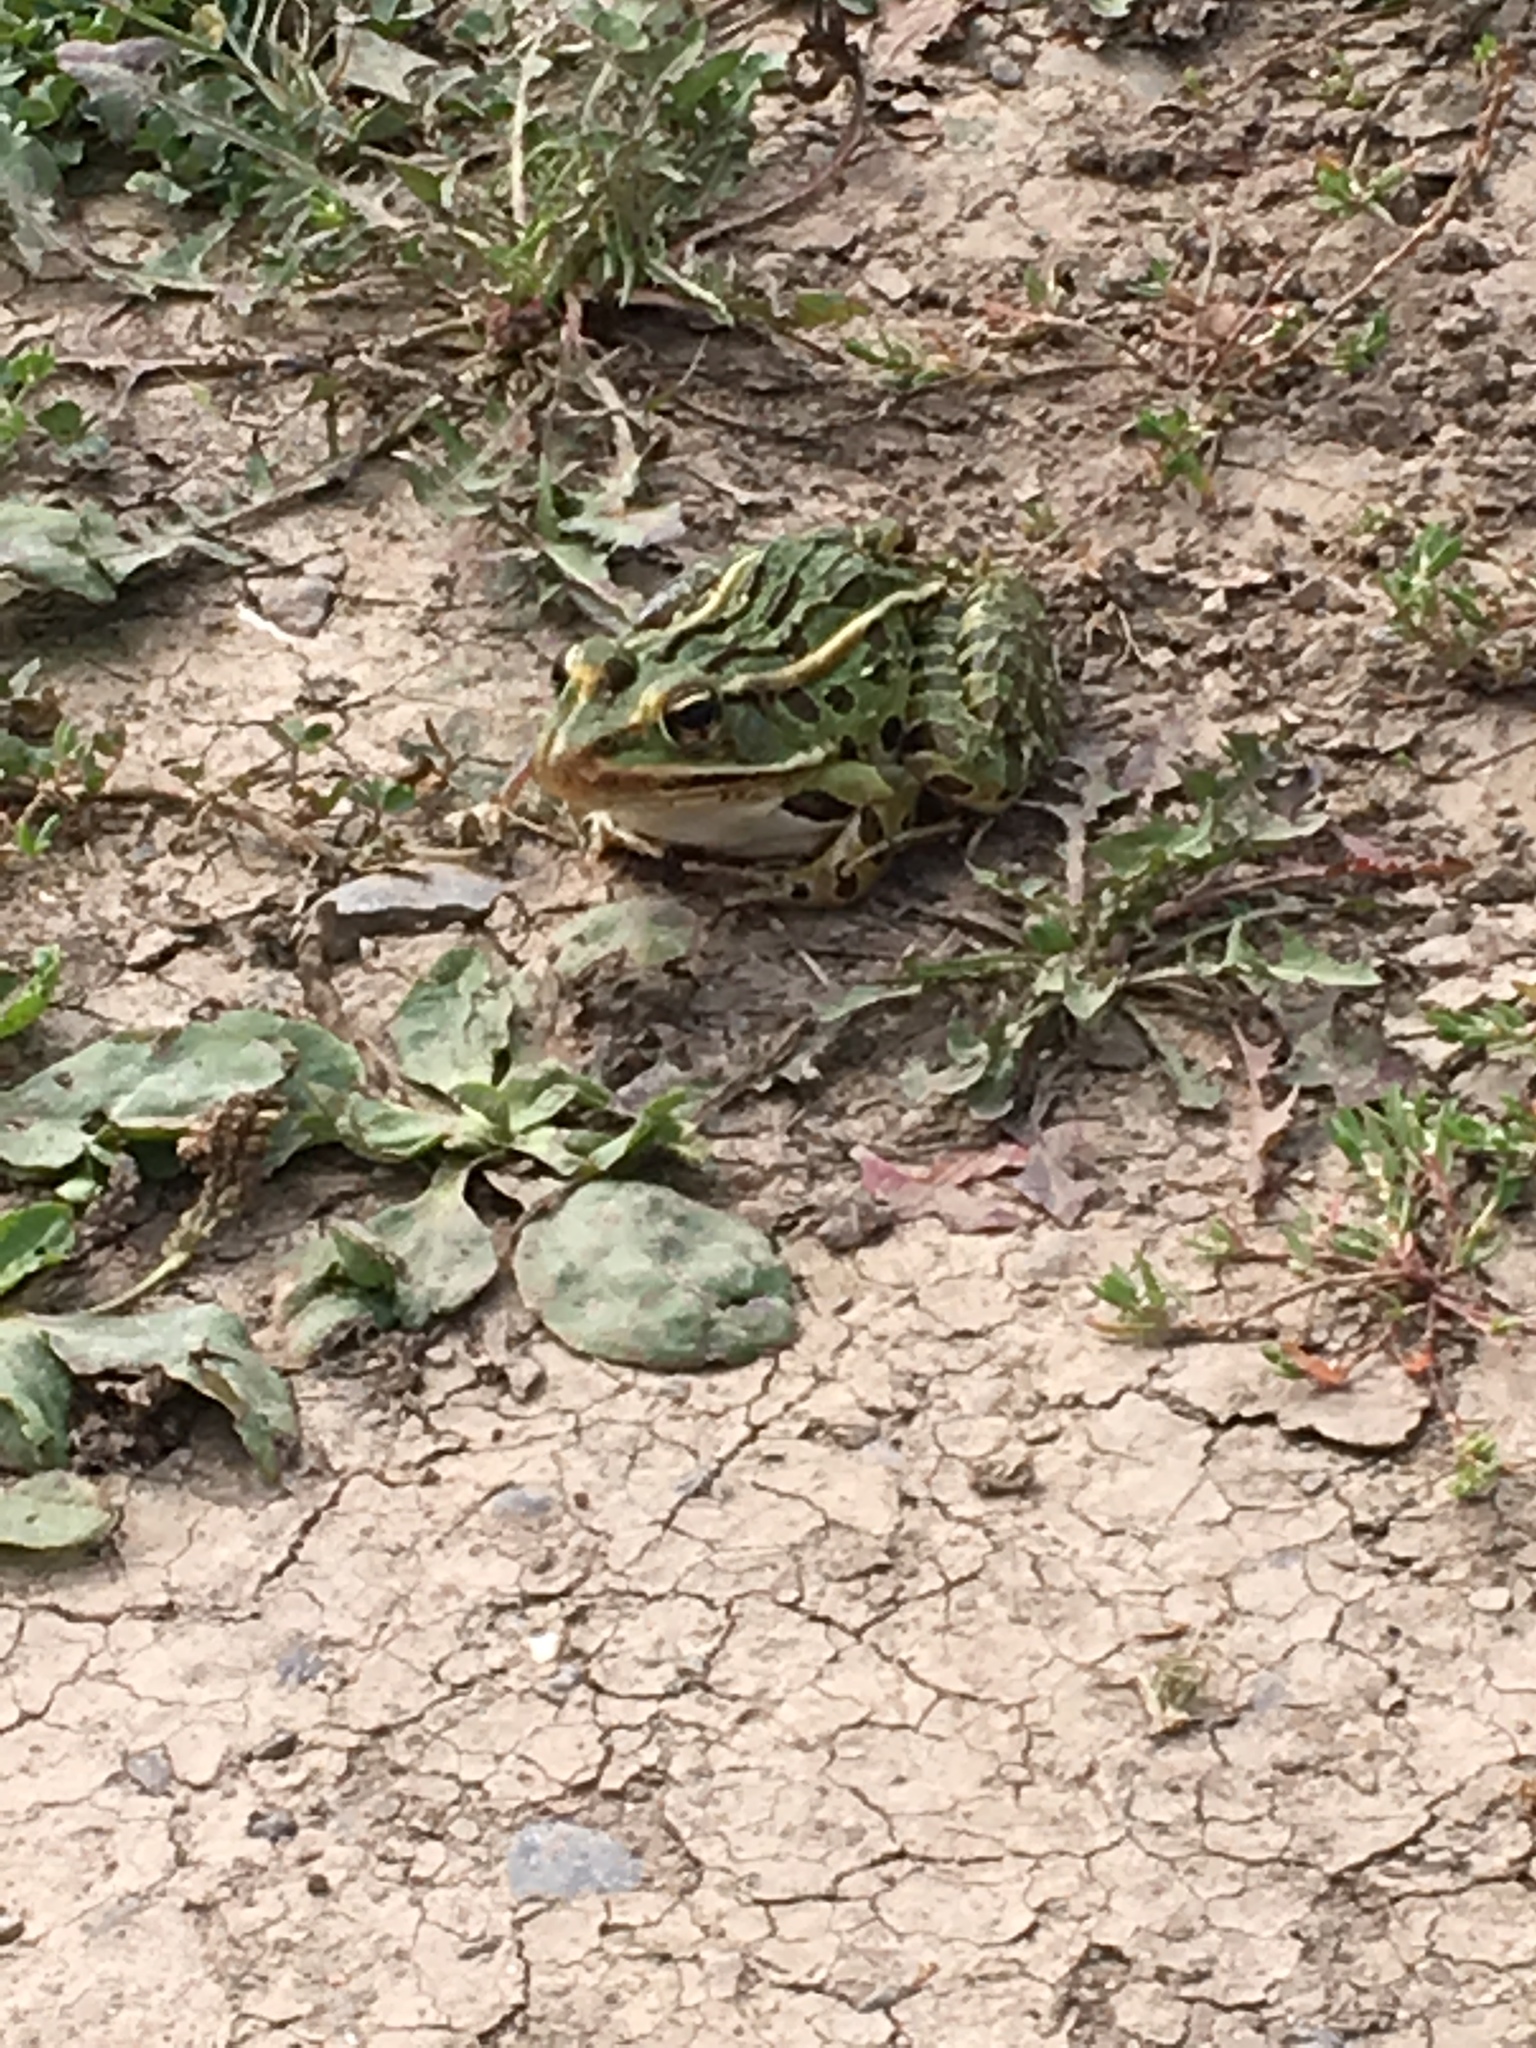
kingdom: Animalia
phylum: Chordata
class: Amphibia
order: Anura
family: Ranidae
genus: Lithobates
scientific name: Lithobates pipiens
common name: Northern leopard frog
